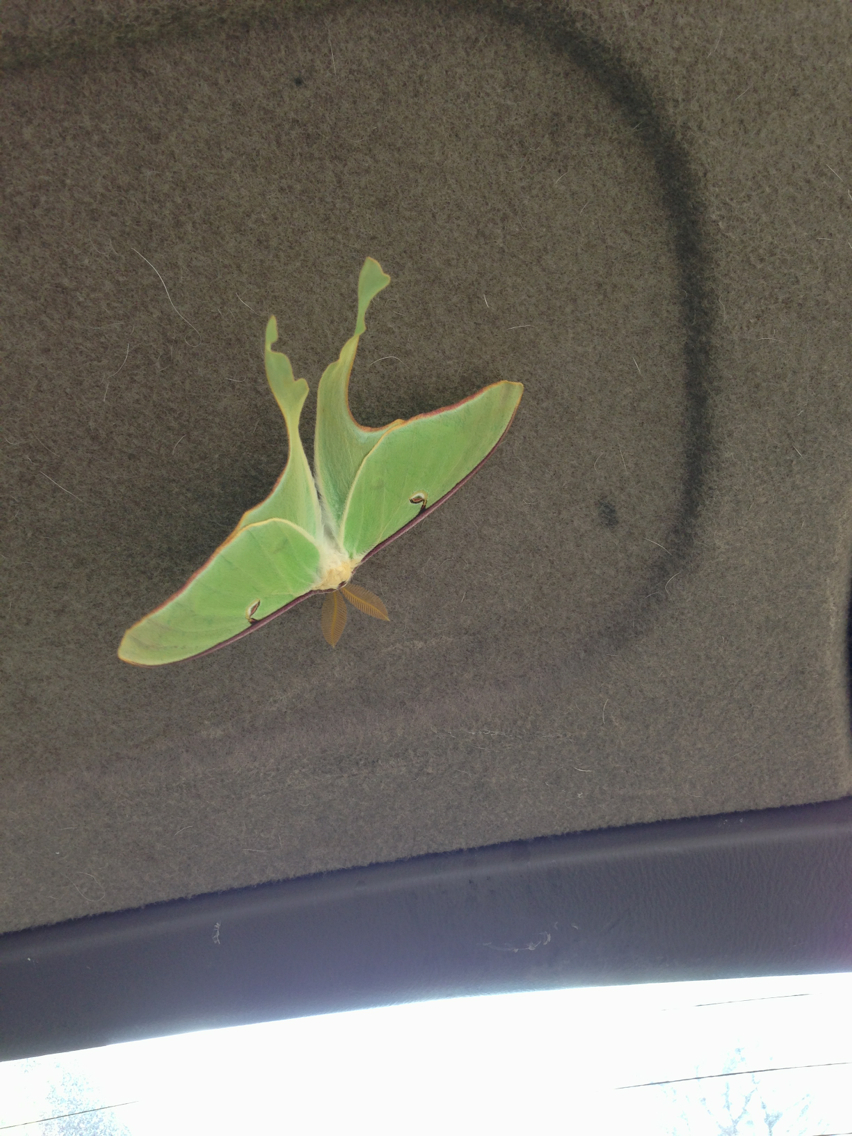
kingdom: Animalia
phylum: Arthropoda
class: Insecta
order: Lepidoptera
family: Saturniidae
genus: Actias
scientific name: Actias luna
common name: Luna moth
